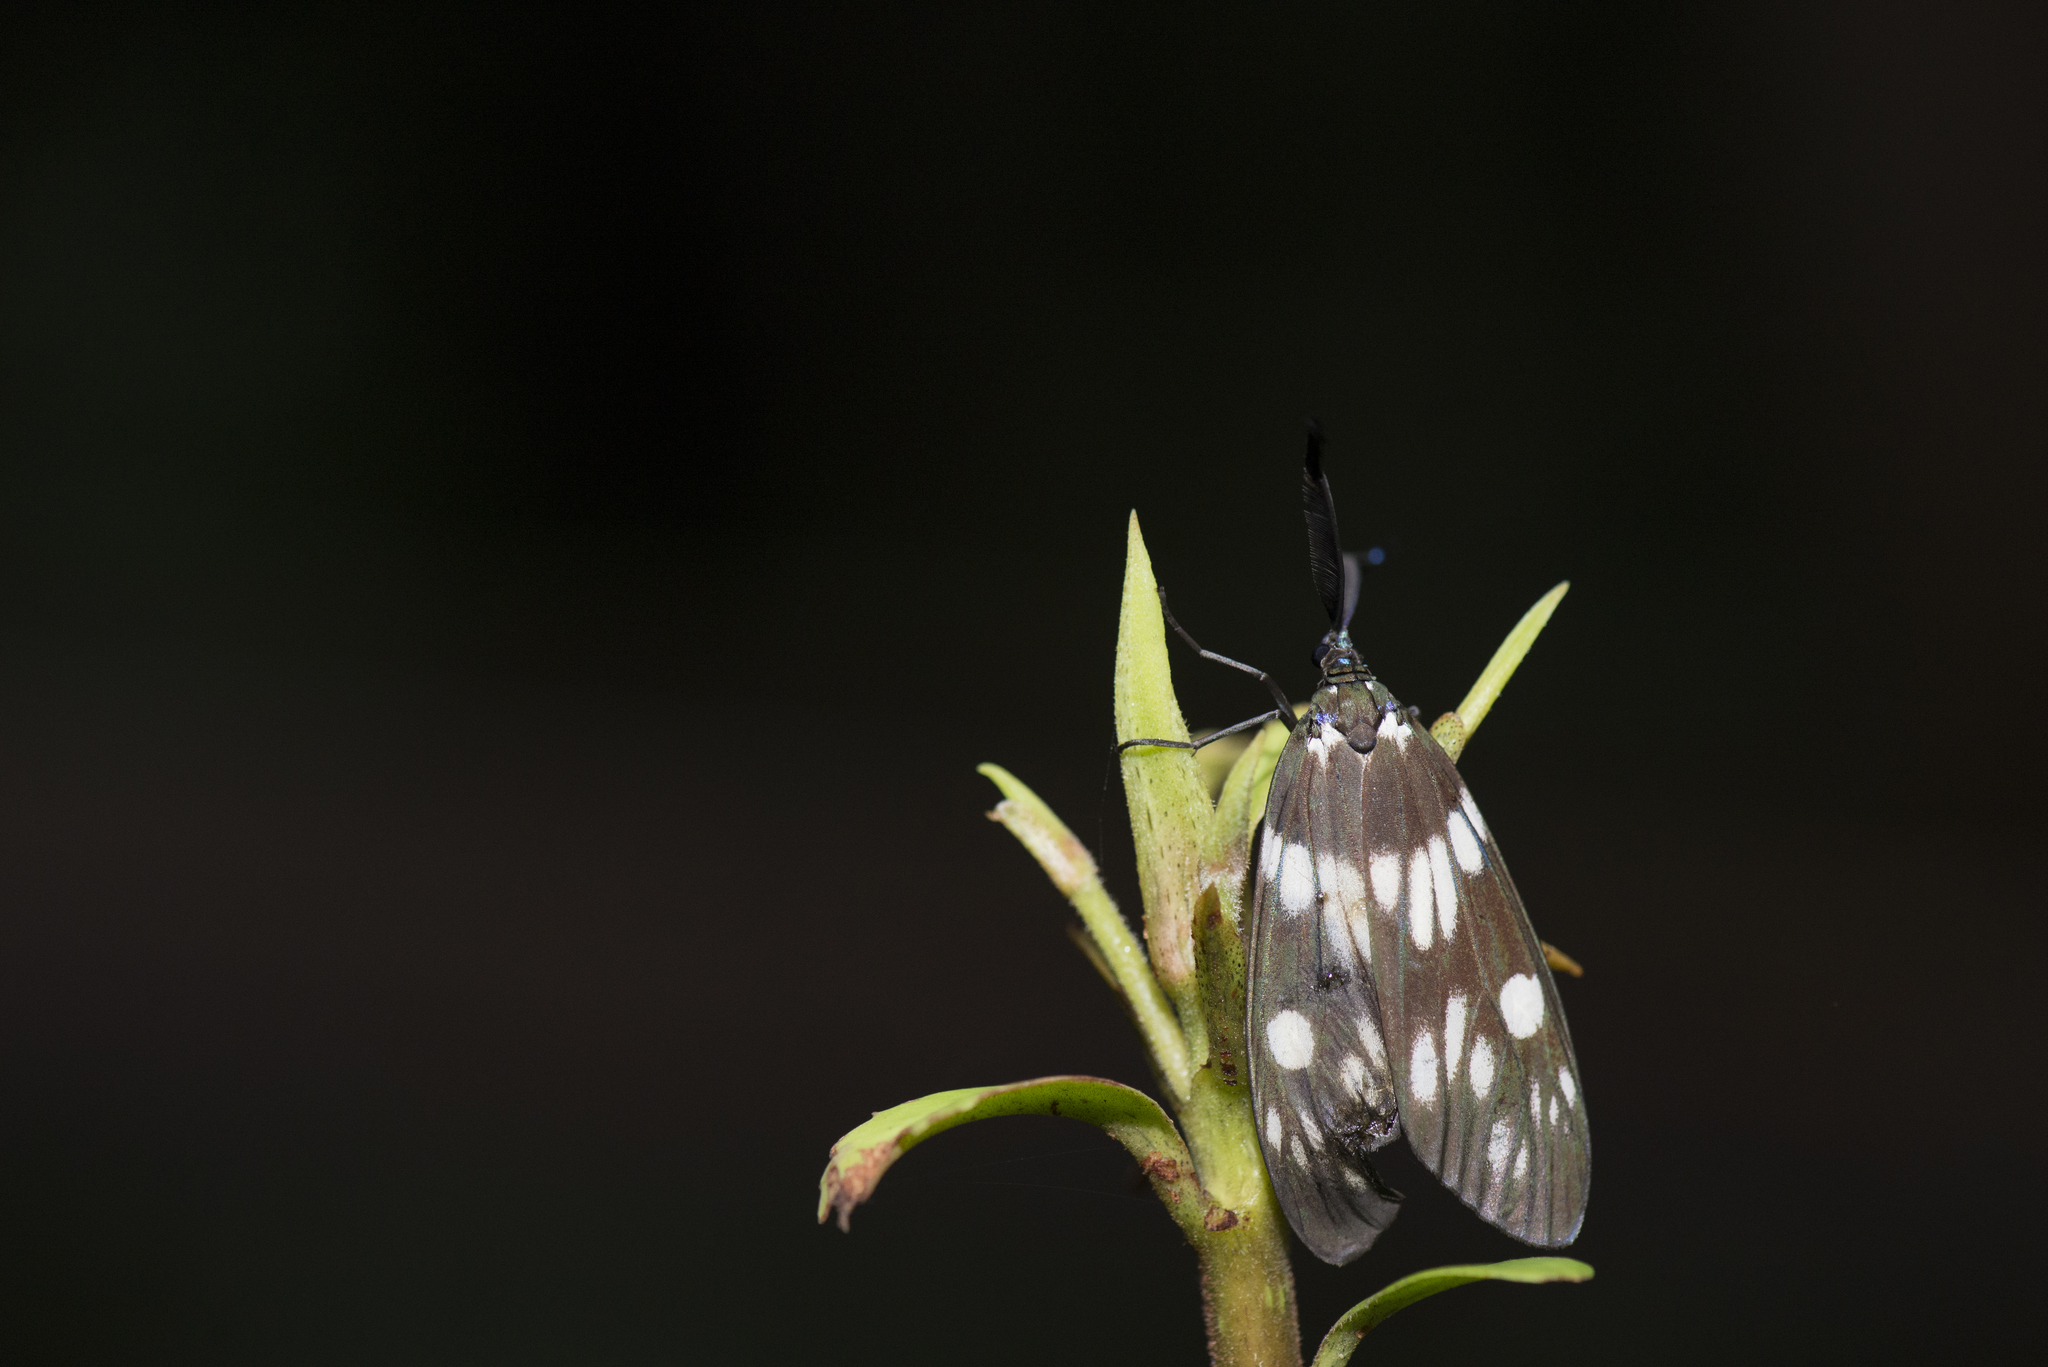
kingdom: Animalia
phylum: Arthropoda
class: Insecta
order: Lepidoptera
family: Zygaenidae
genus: Eterusia
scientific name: Eterusia aedea
